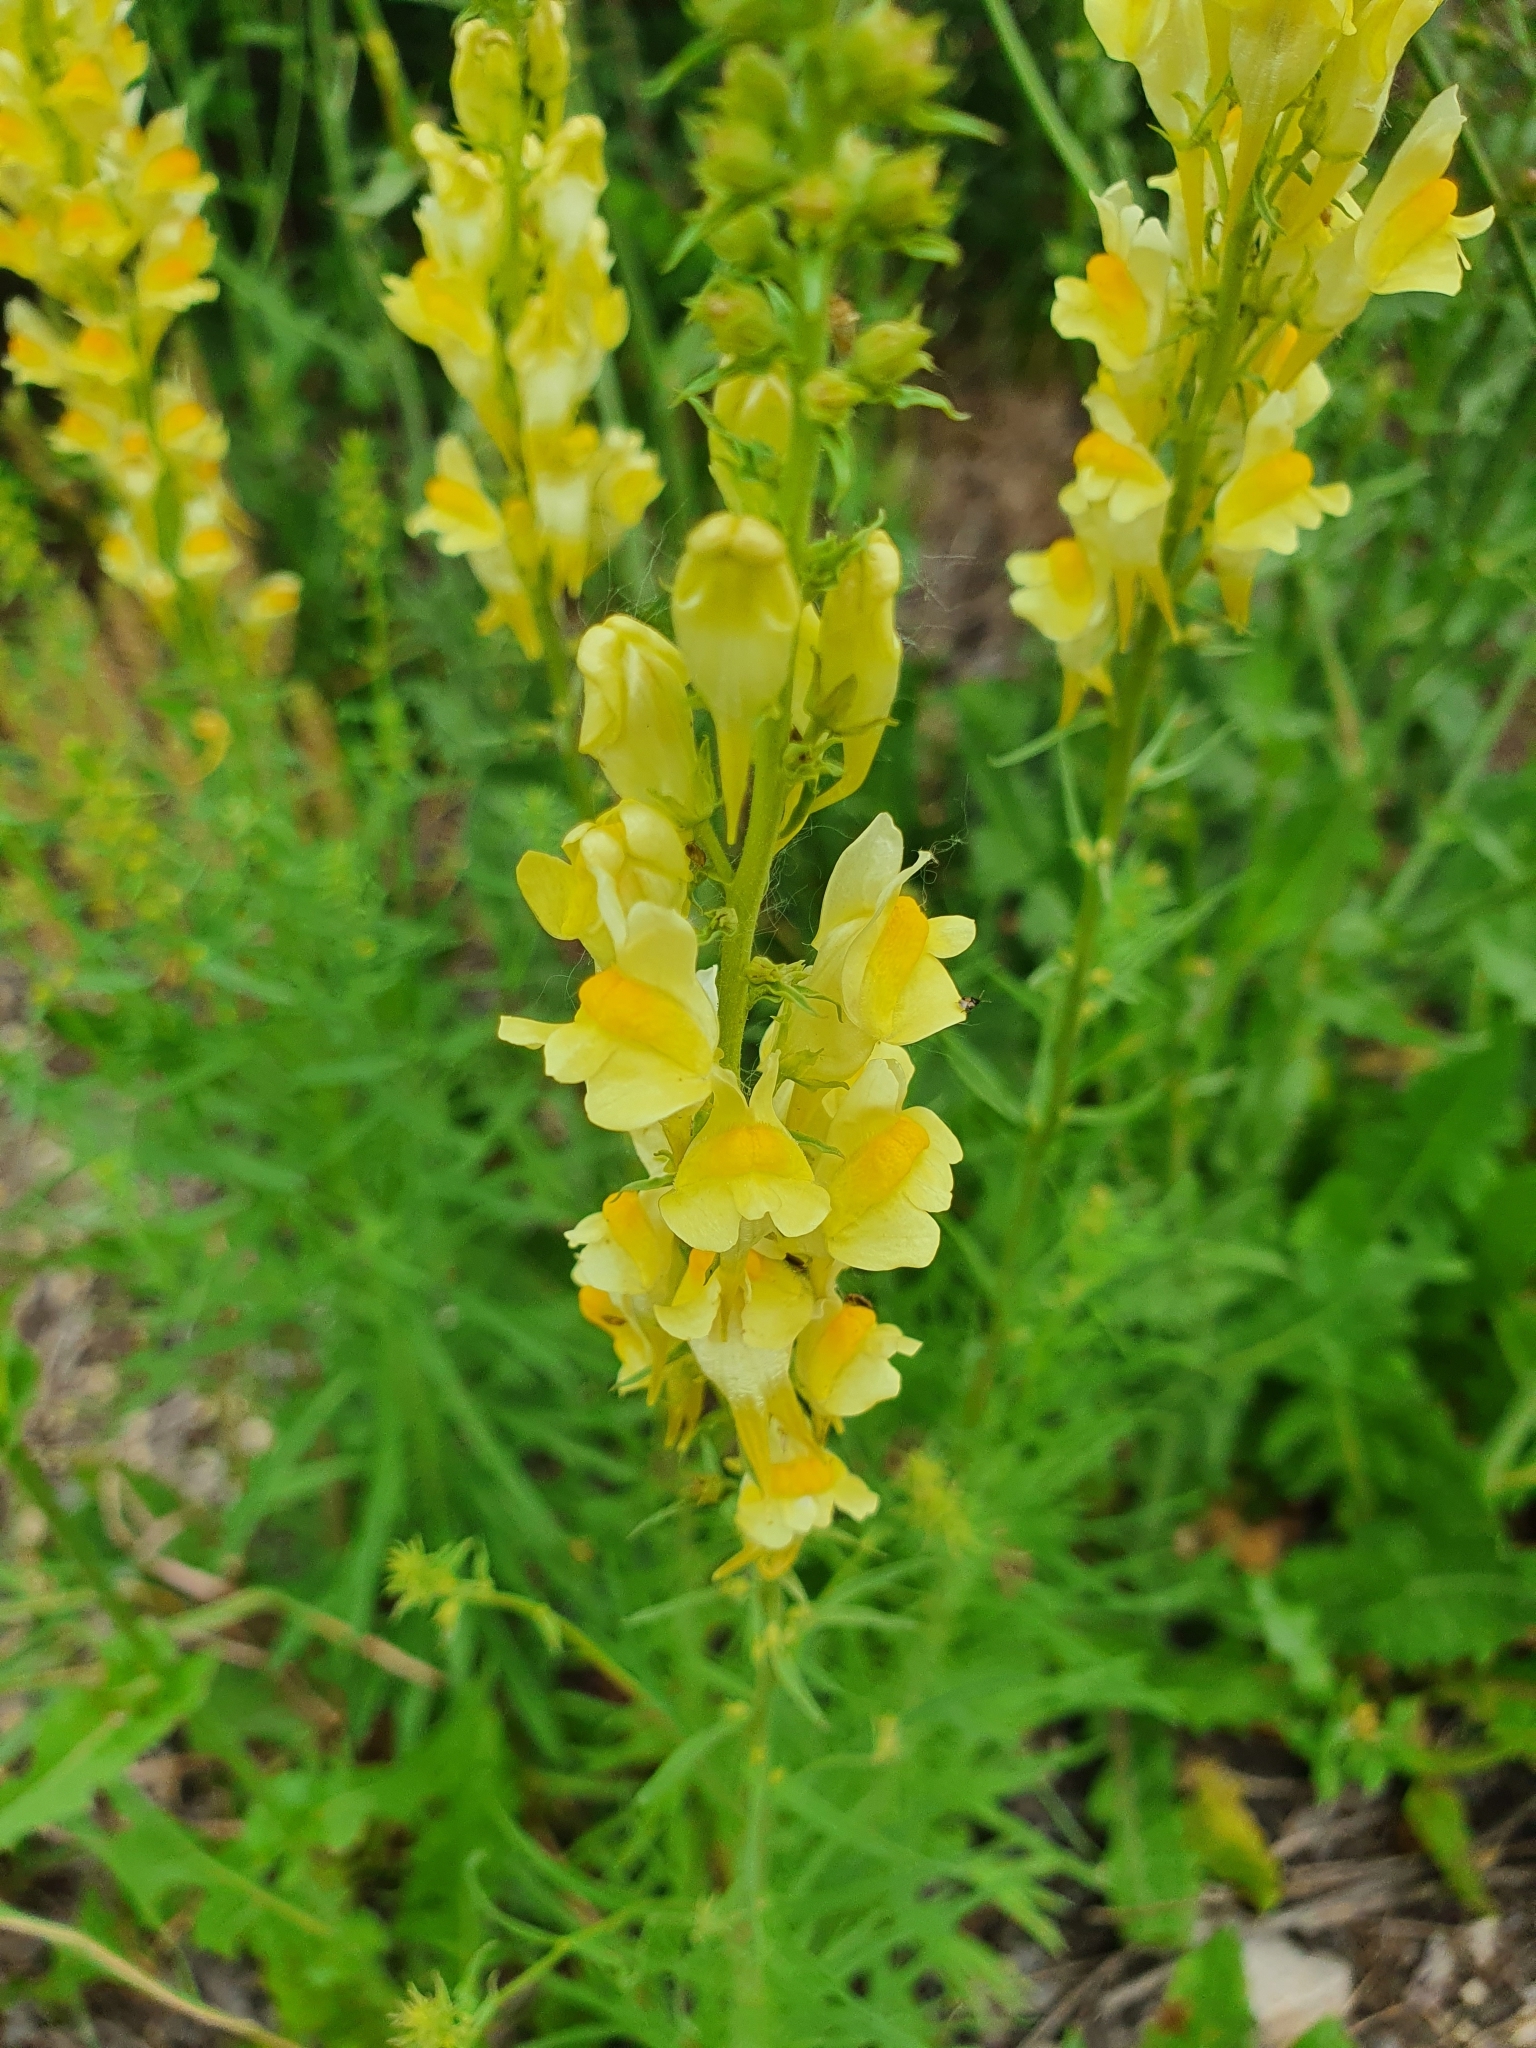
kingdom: Plantae
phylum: Tracheophyta
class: Magnoliopsida
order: Lamiales
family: Plantaginaceae
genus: Linaria
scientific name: Linaria vulgaris
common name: Butter and eggs
